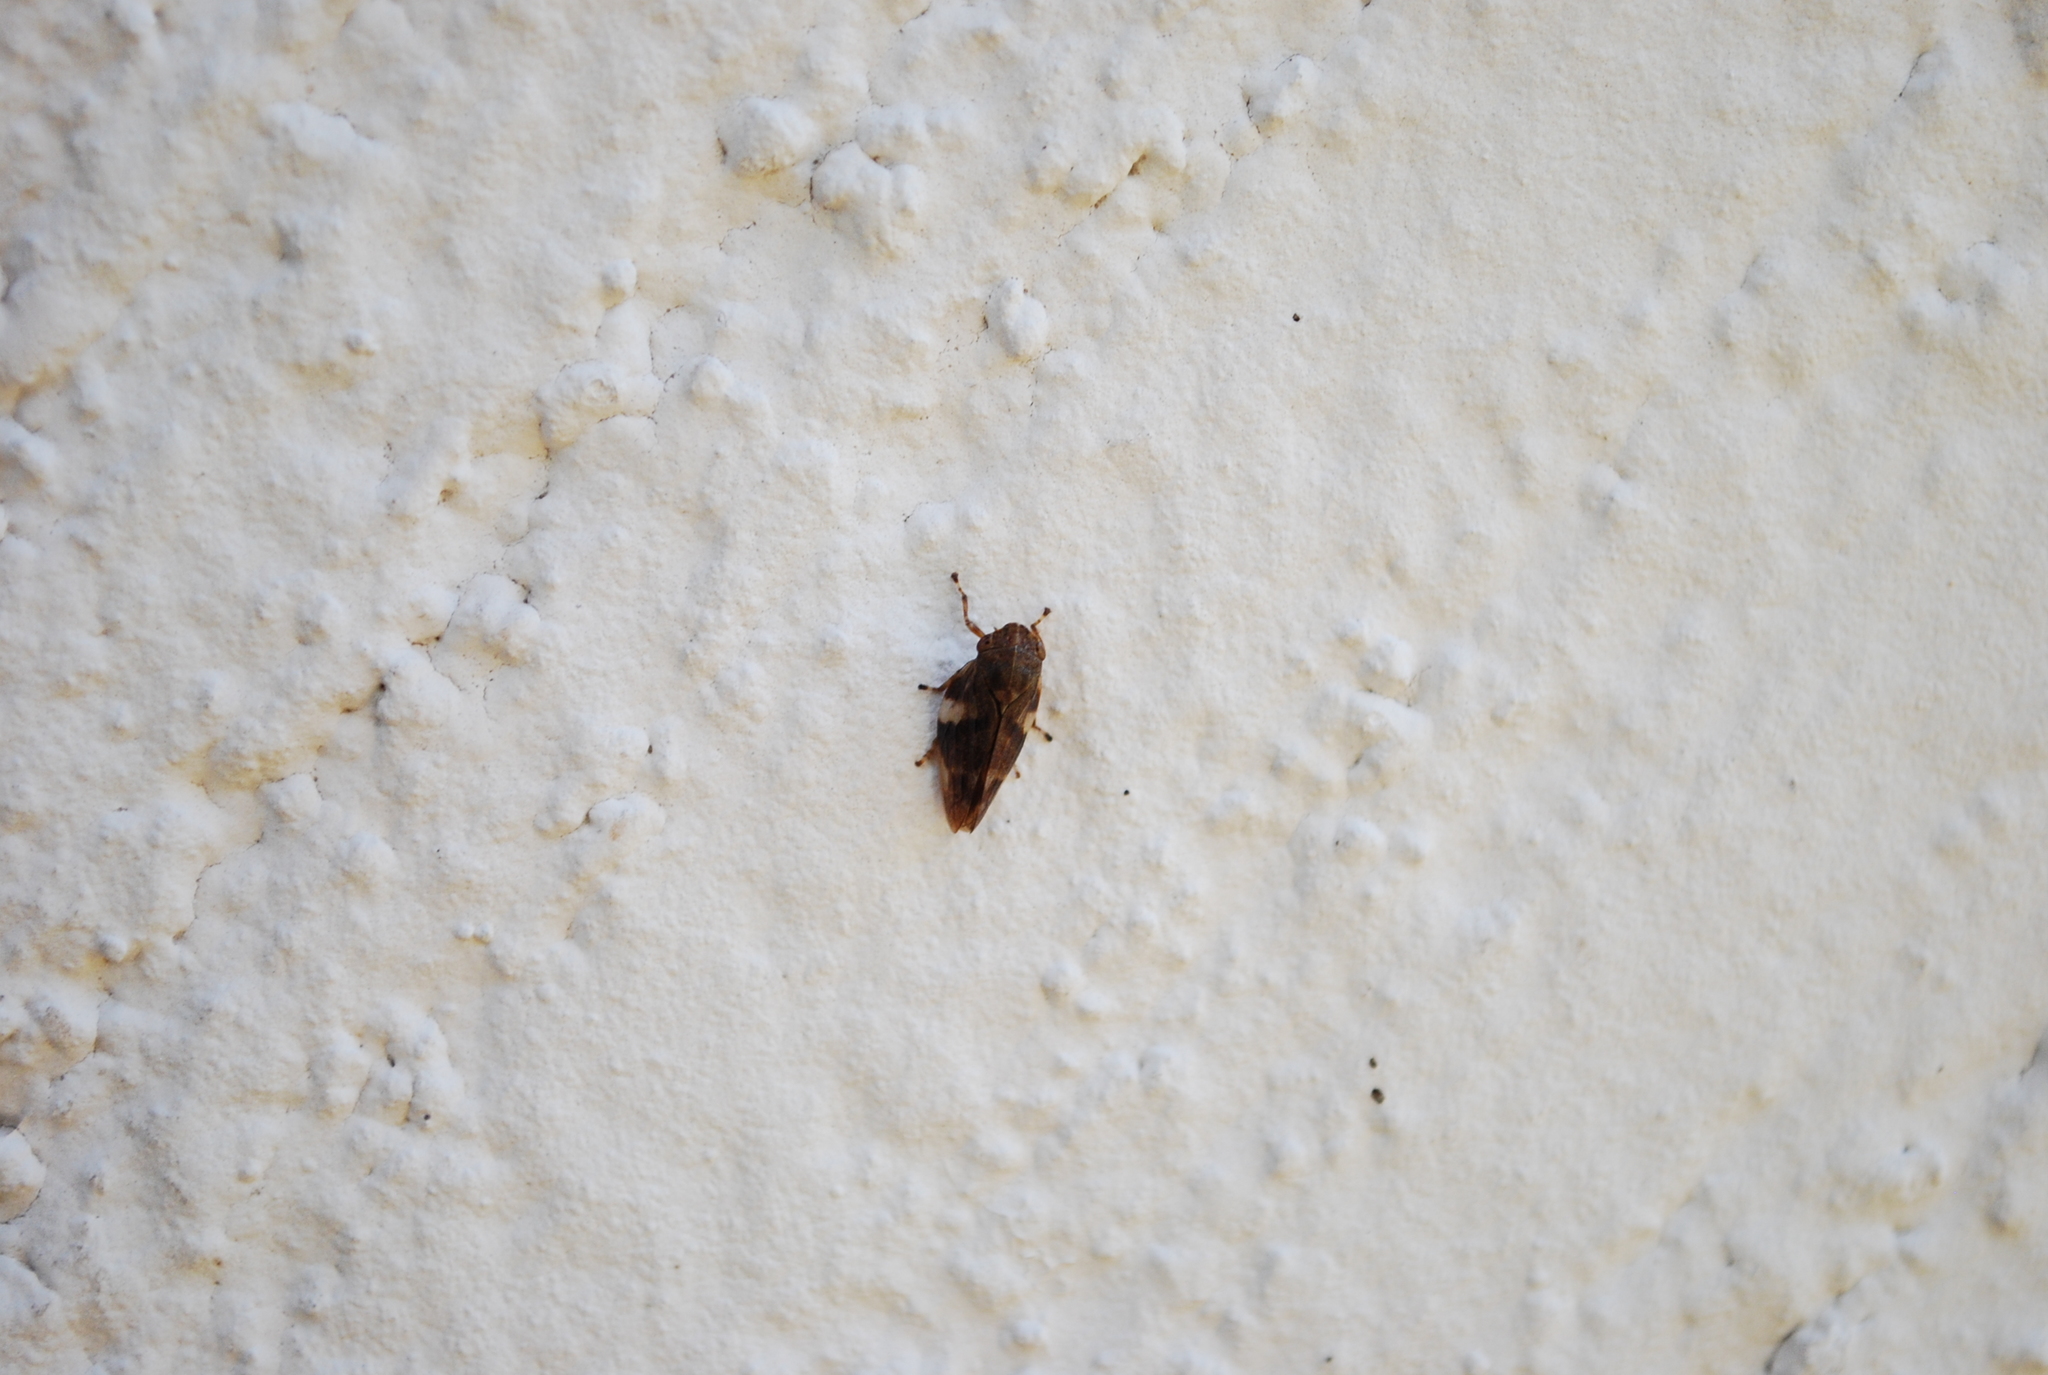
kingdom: Animalia
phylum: Arthropoda
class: Insecta
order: Hemiptera
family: Aphrophoridae
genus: Aphrophora
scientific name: Aphrophora alni
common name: European alder spittlebug
